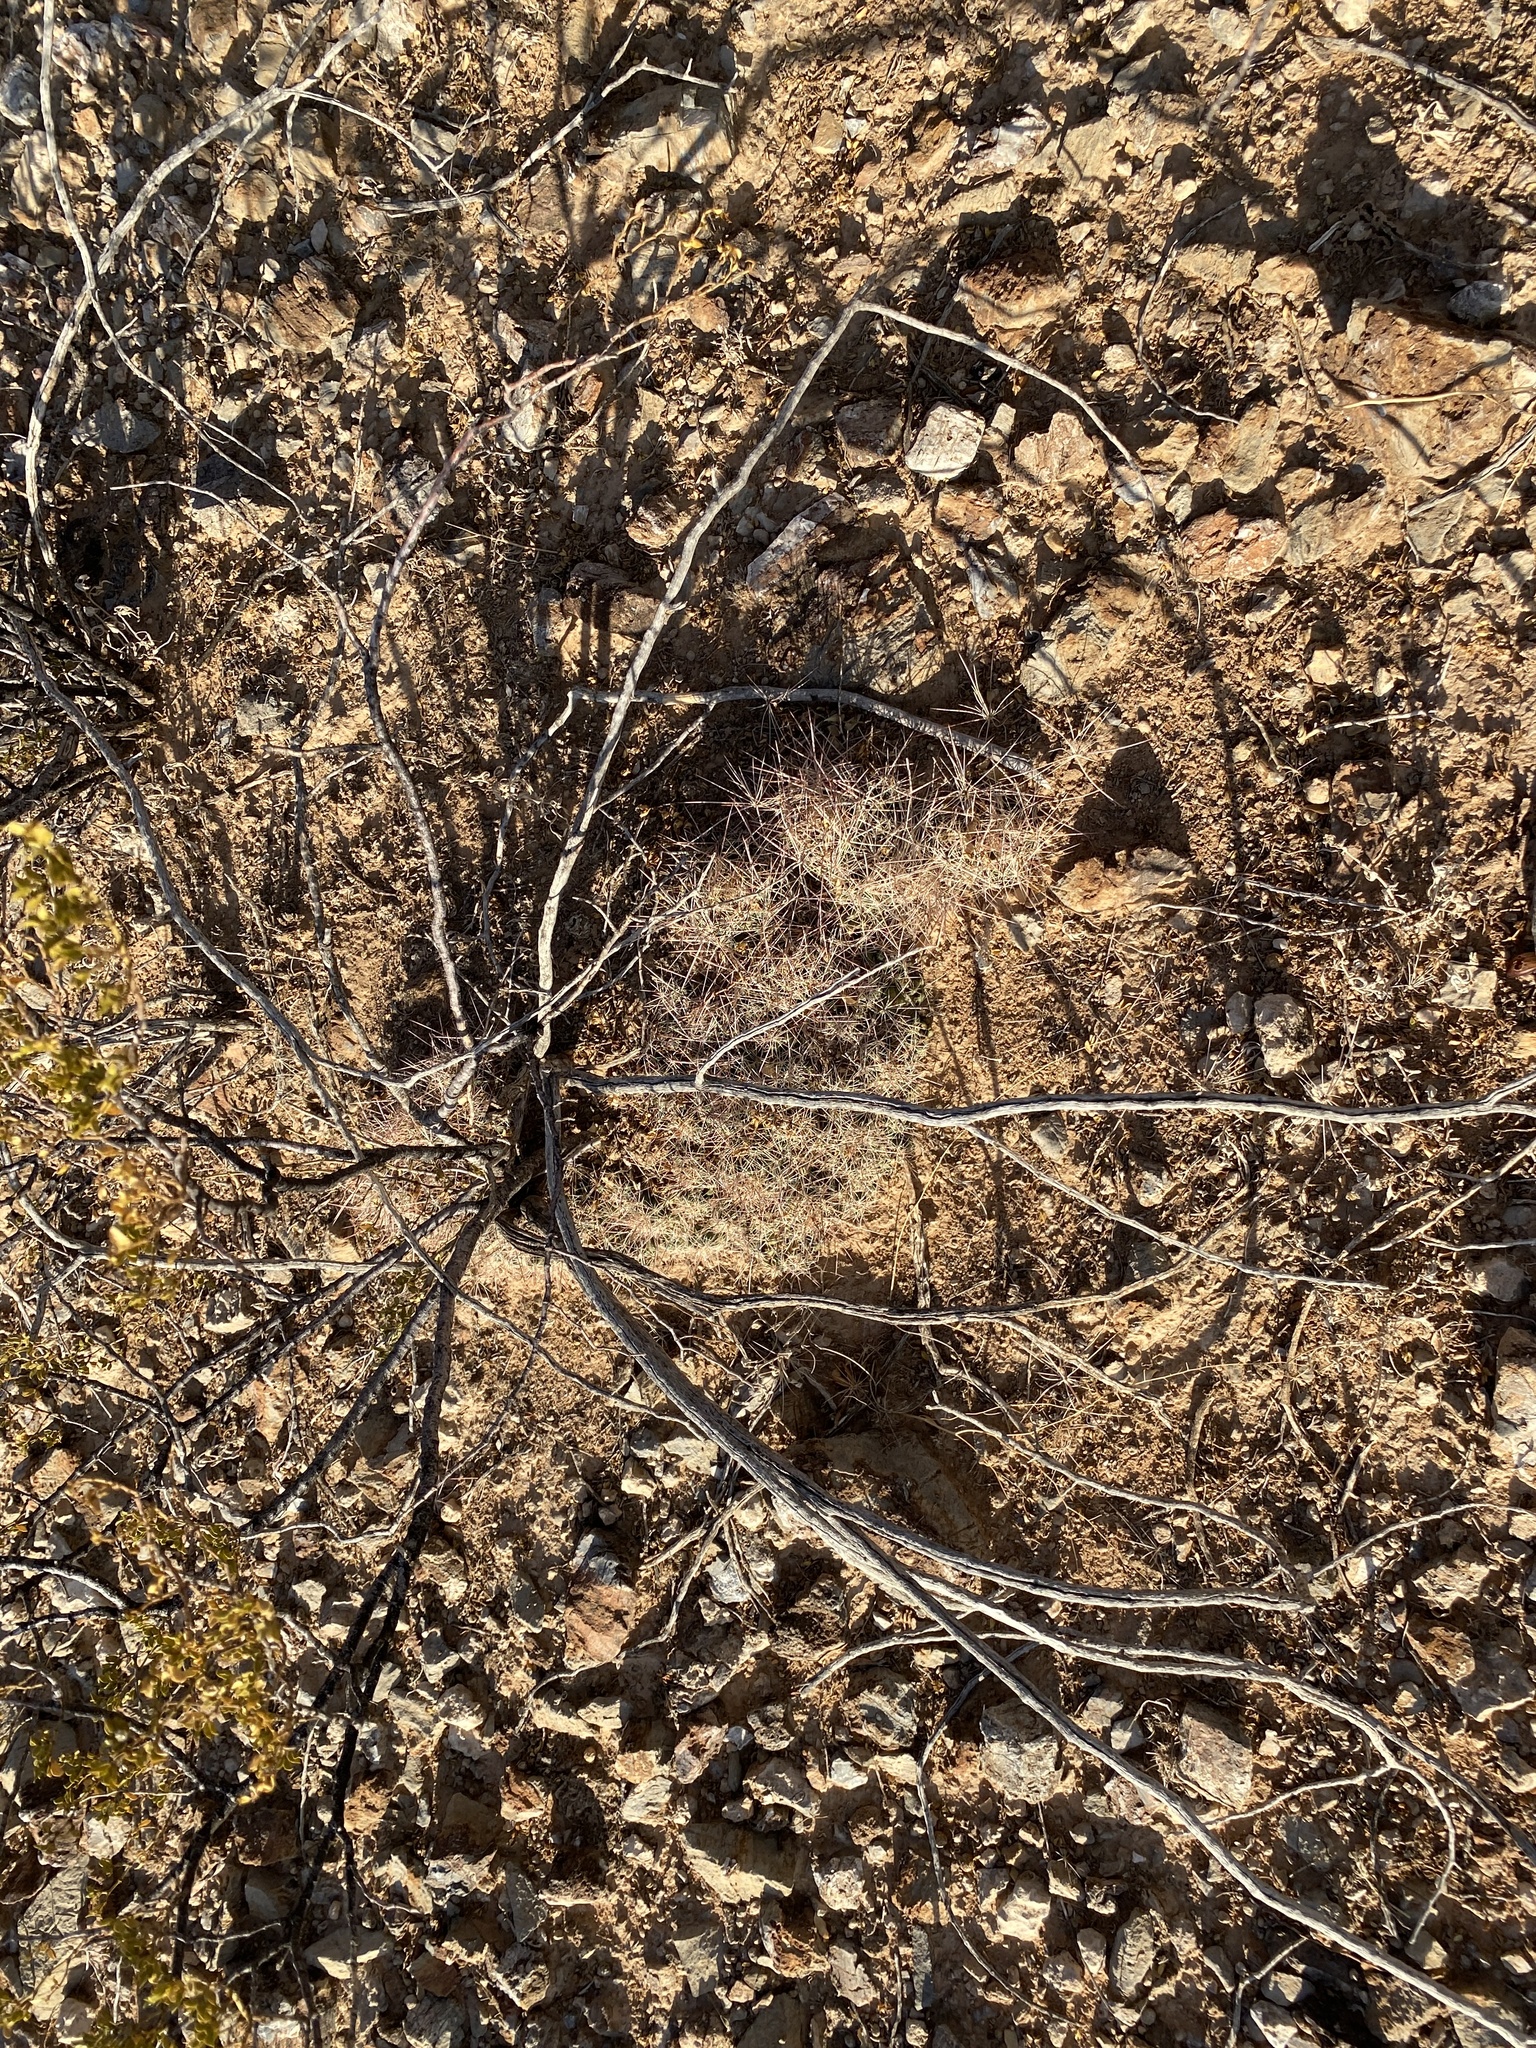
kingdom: Plantae
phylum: Tracheophyta
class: Magnoliopsida
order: Caryophyllales
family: Cactaceae
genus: Coryphantha
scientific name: Coryphantha macromeris
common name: Nipple beehive cactus
